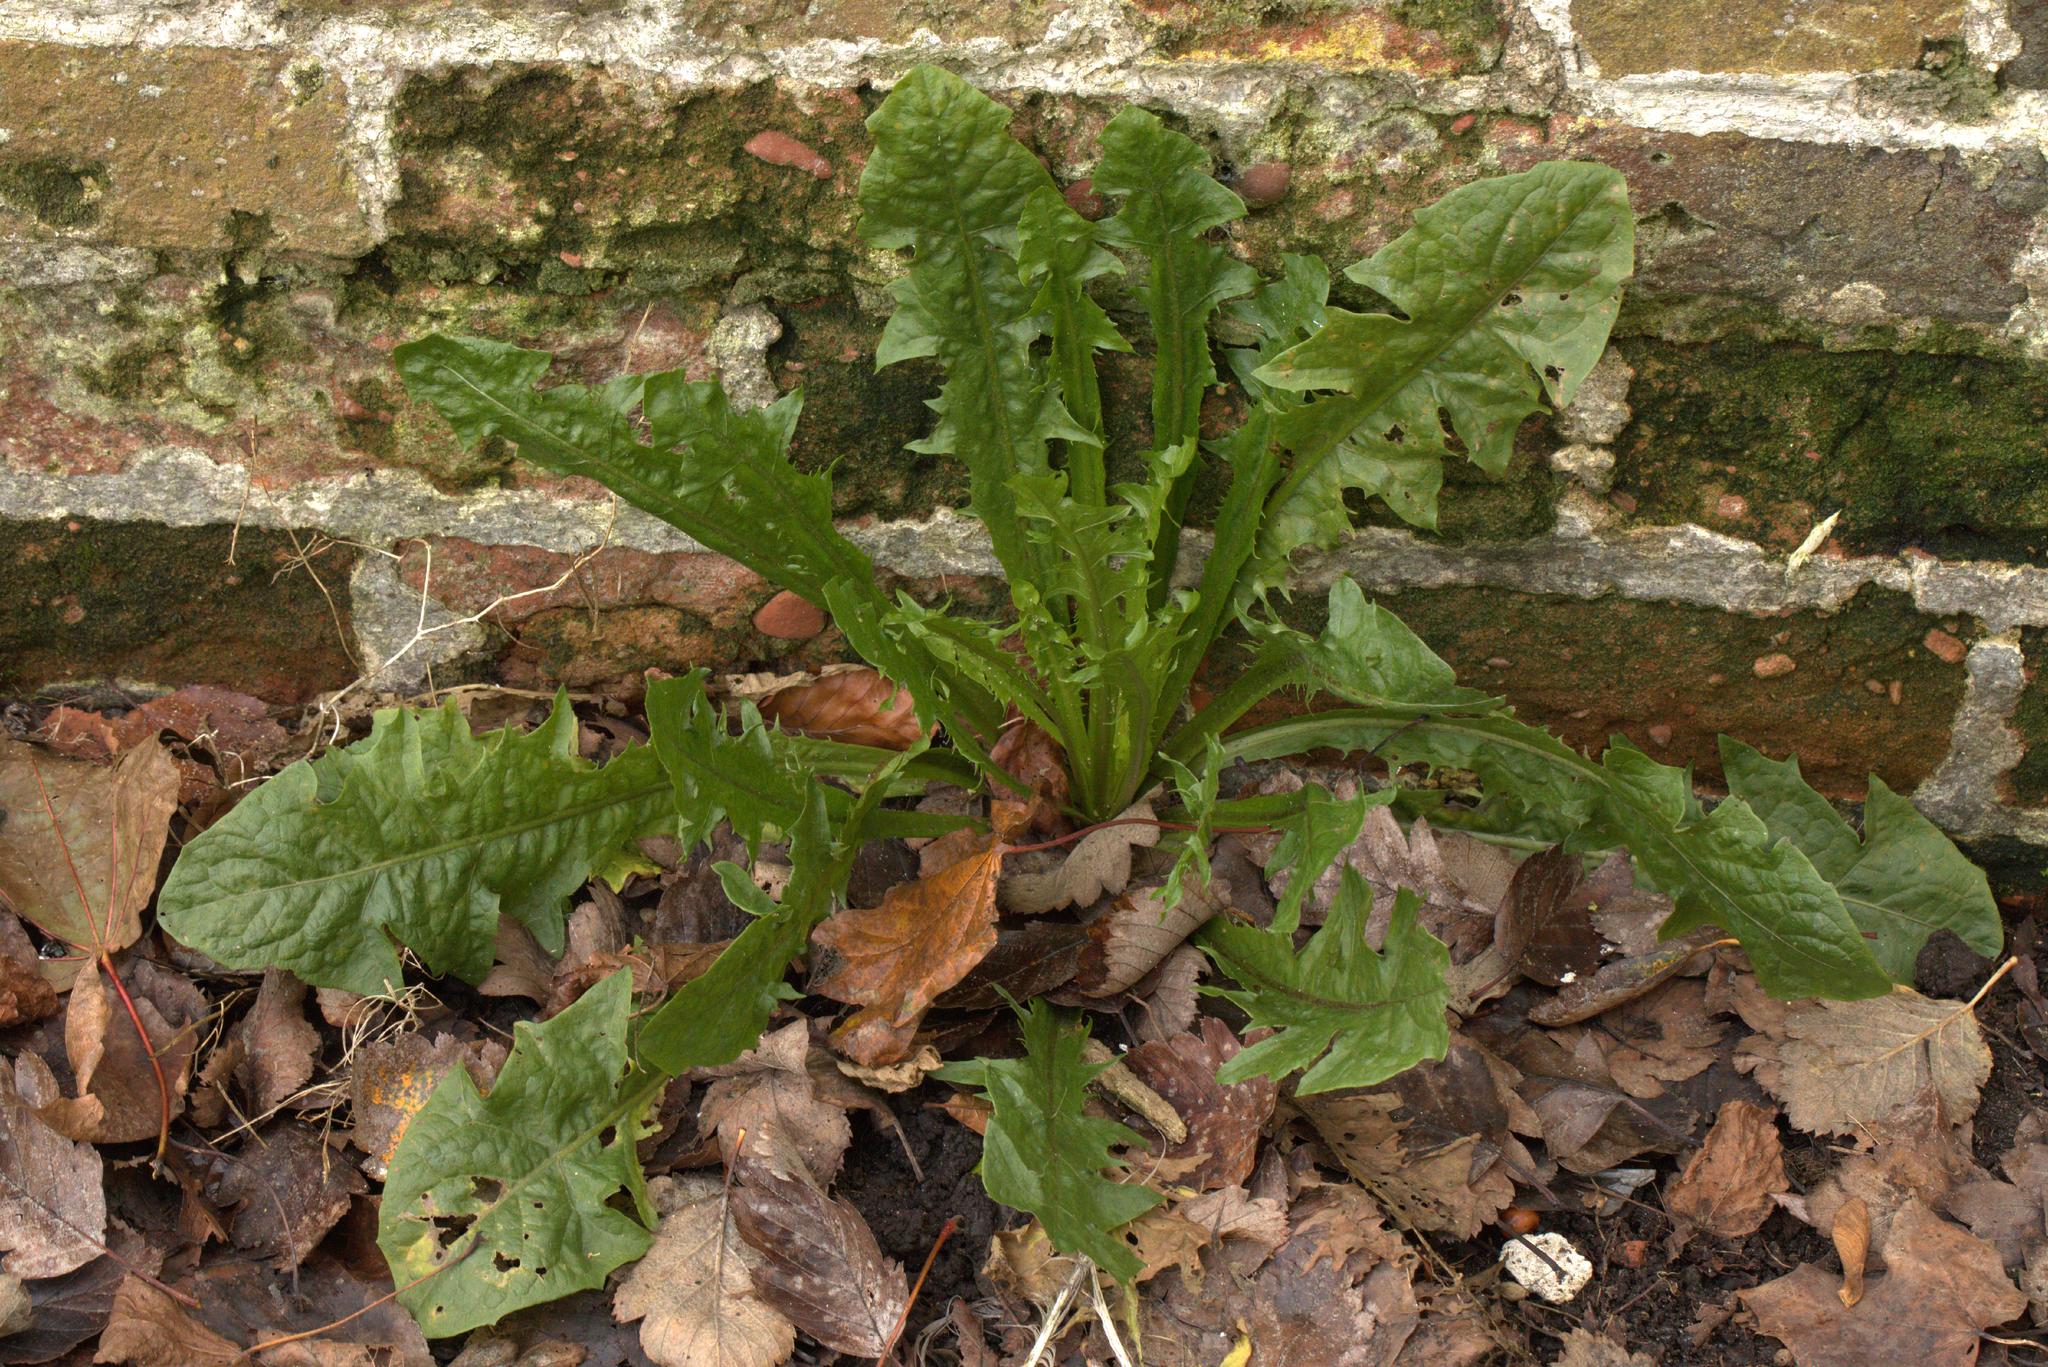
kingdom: Plantae
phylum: Tracheophyta
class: Magnoliopsida
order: Asterales
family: Asteraceae
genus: Taraxacum
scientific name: Taraxacum officinale
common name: Common dandelion
